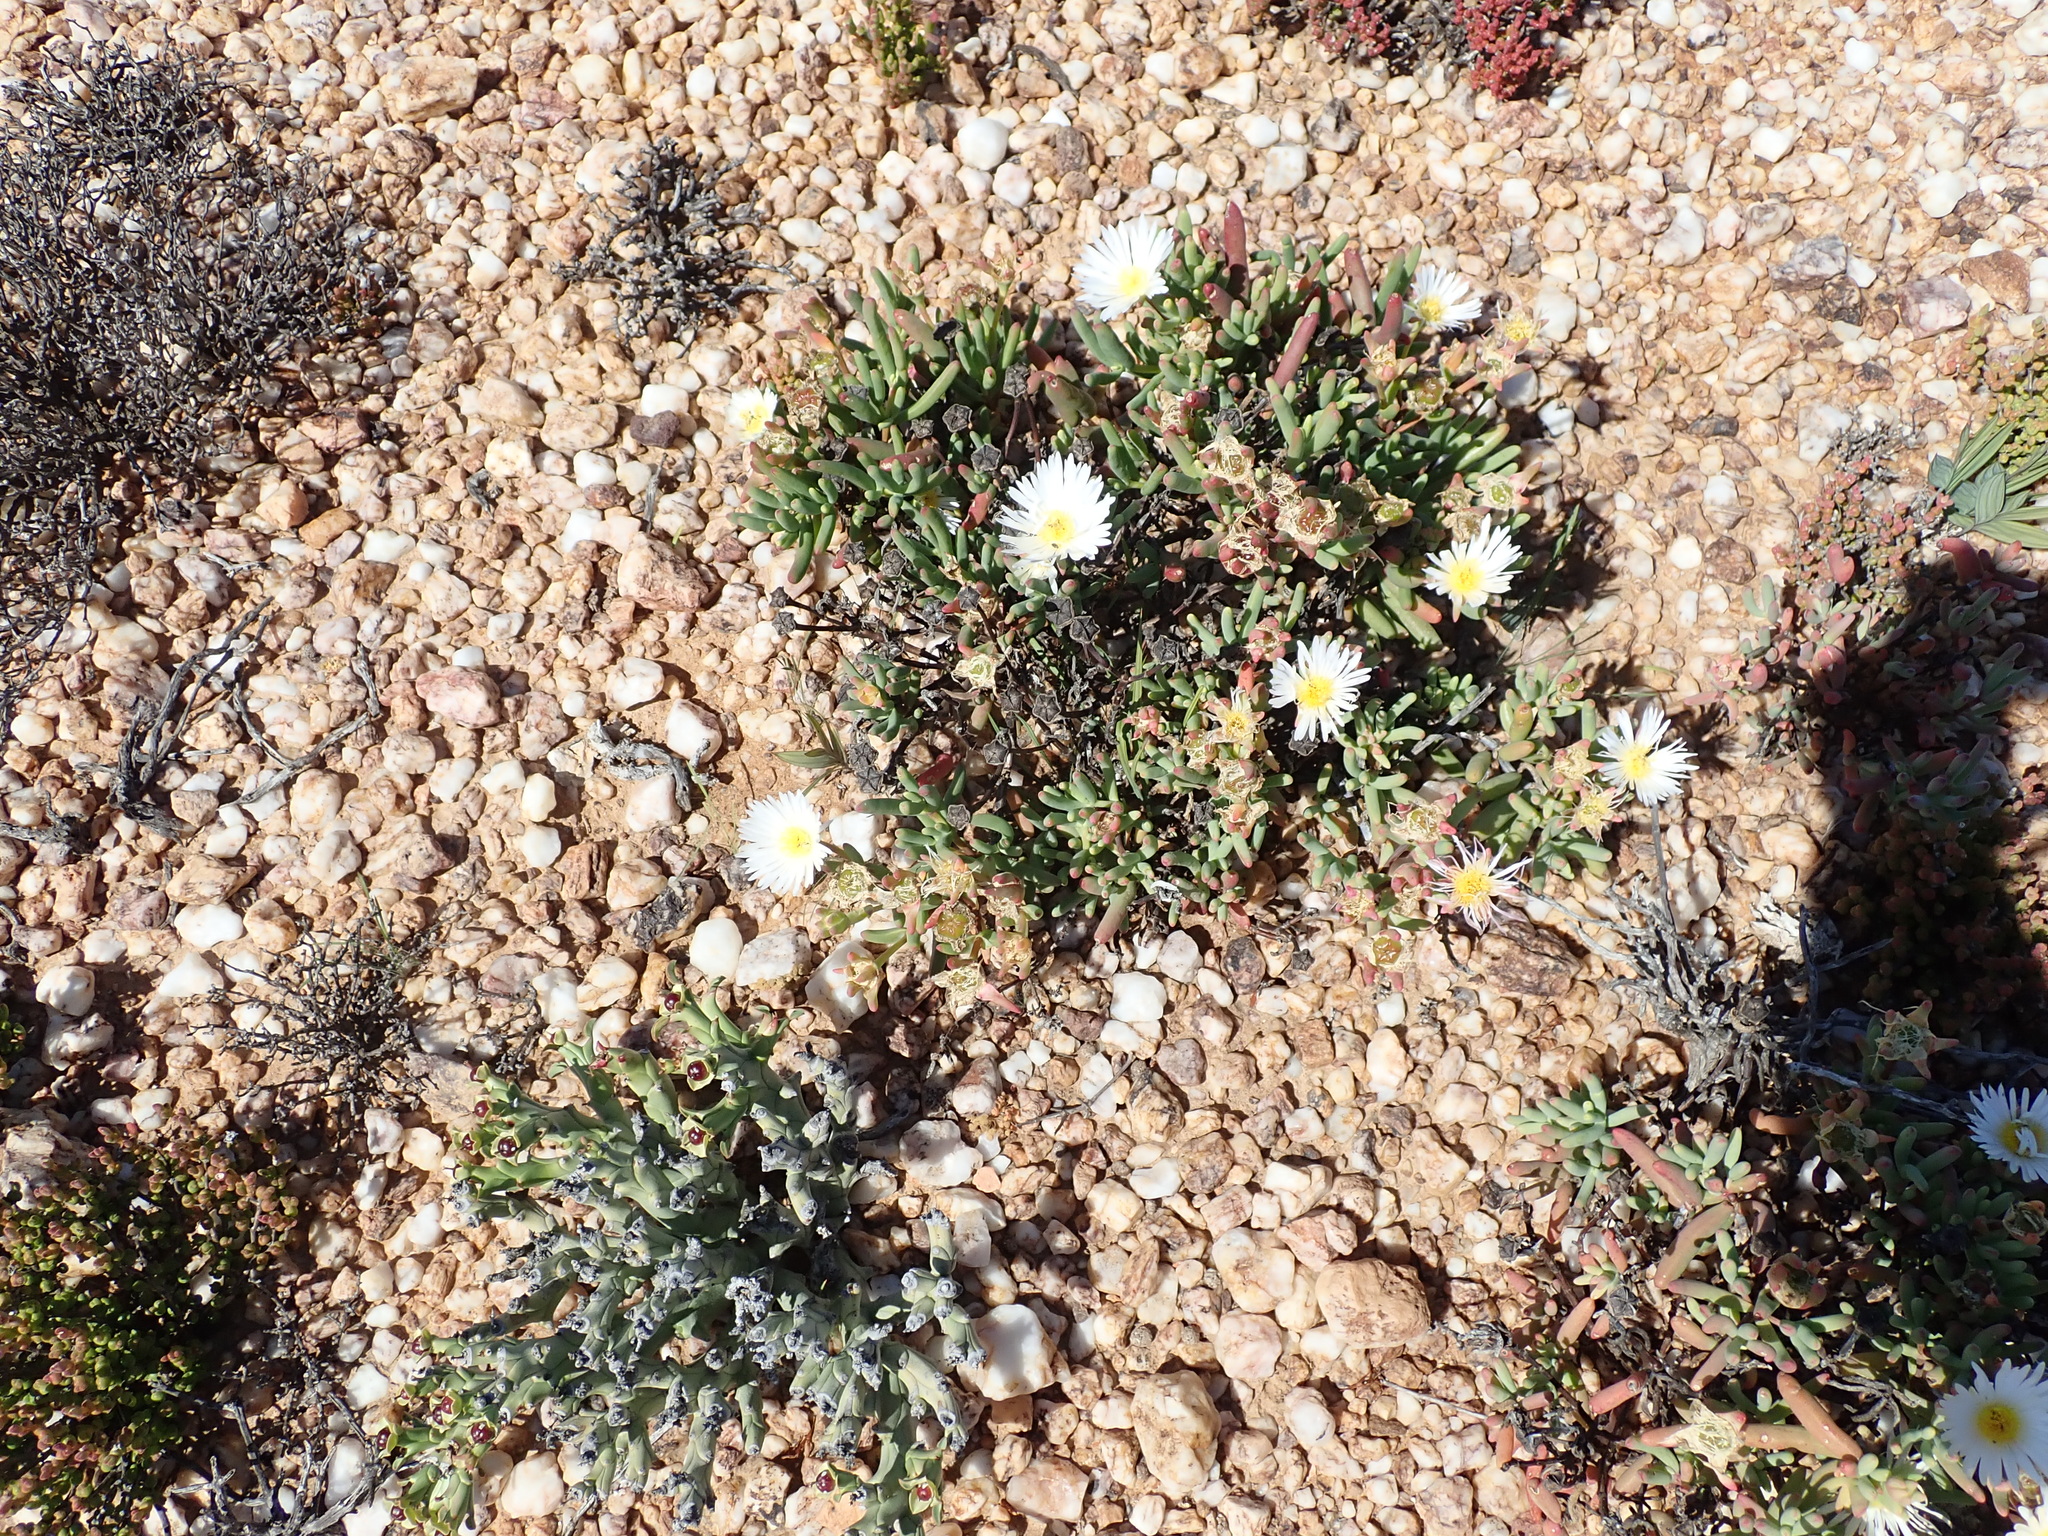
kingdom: Plantae
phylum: Tracheophyta
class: Magnoliopsida
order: Caryophyllales
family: Aizoaceae
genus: Lampranthus
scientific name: Lampranthus watermeyeri
